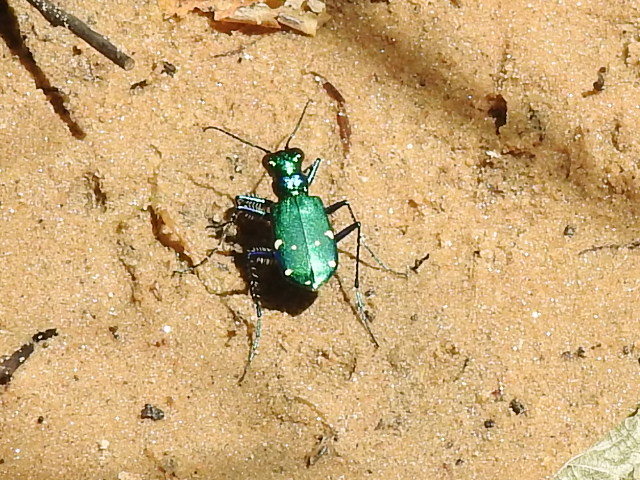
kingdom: Animalia
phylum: Arthropoda
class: Insecta
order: Coleoptera
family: Carabidae
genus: Cicindela
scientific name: Cicindela sexguttata
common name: Six-spotted tiger beetle
